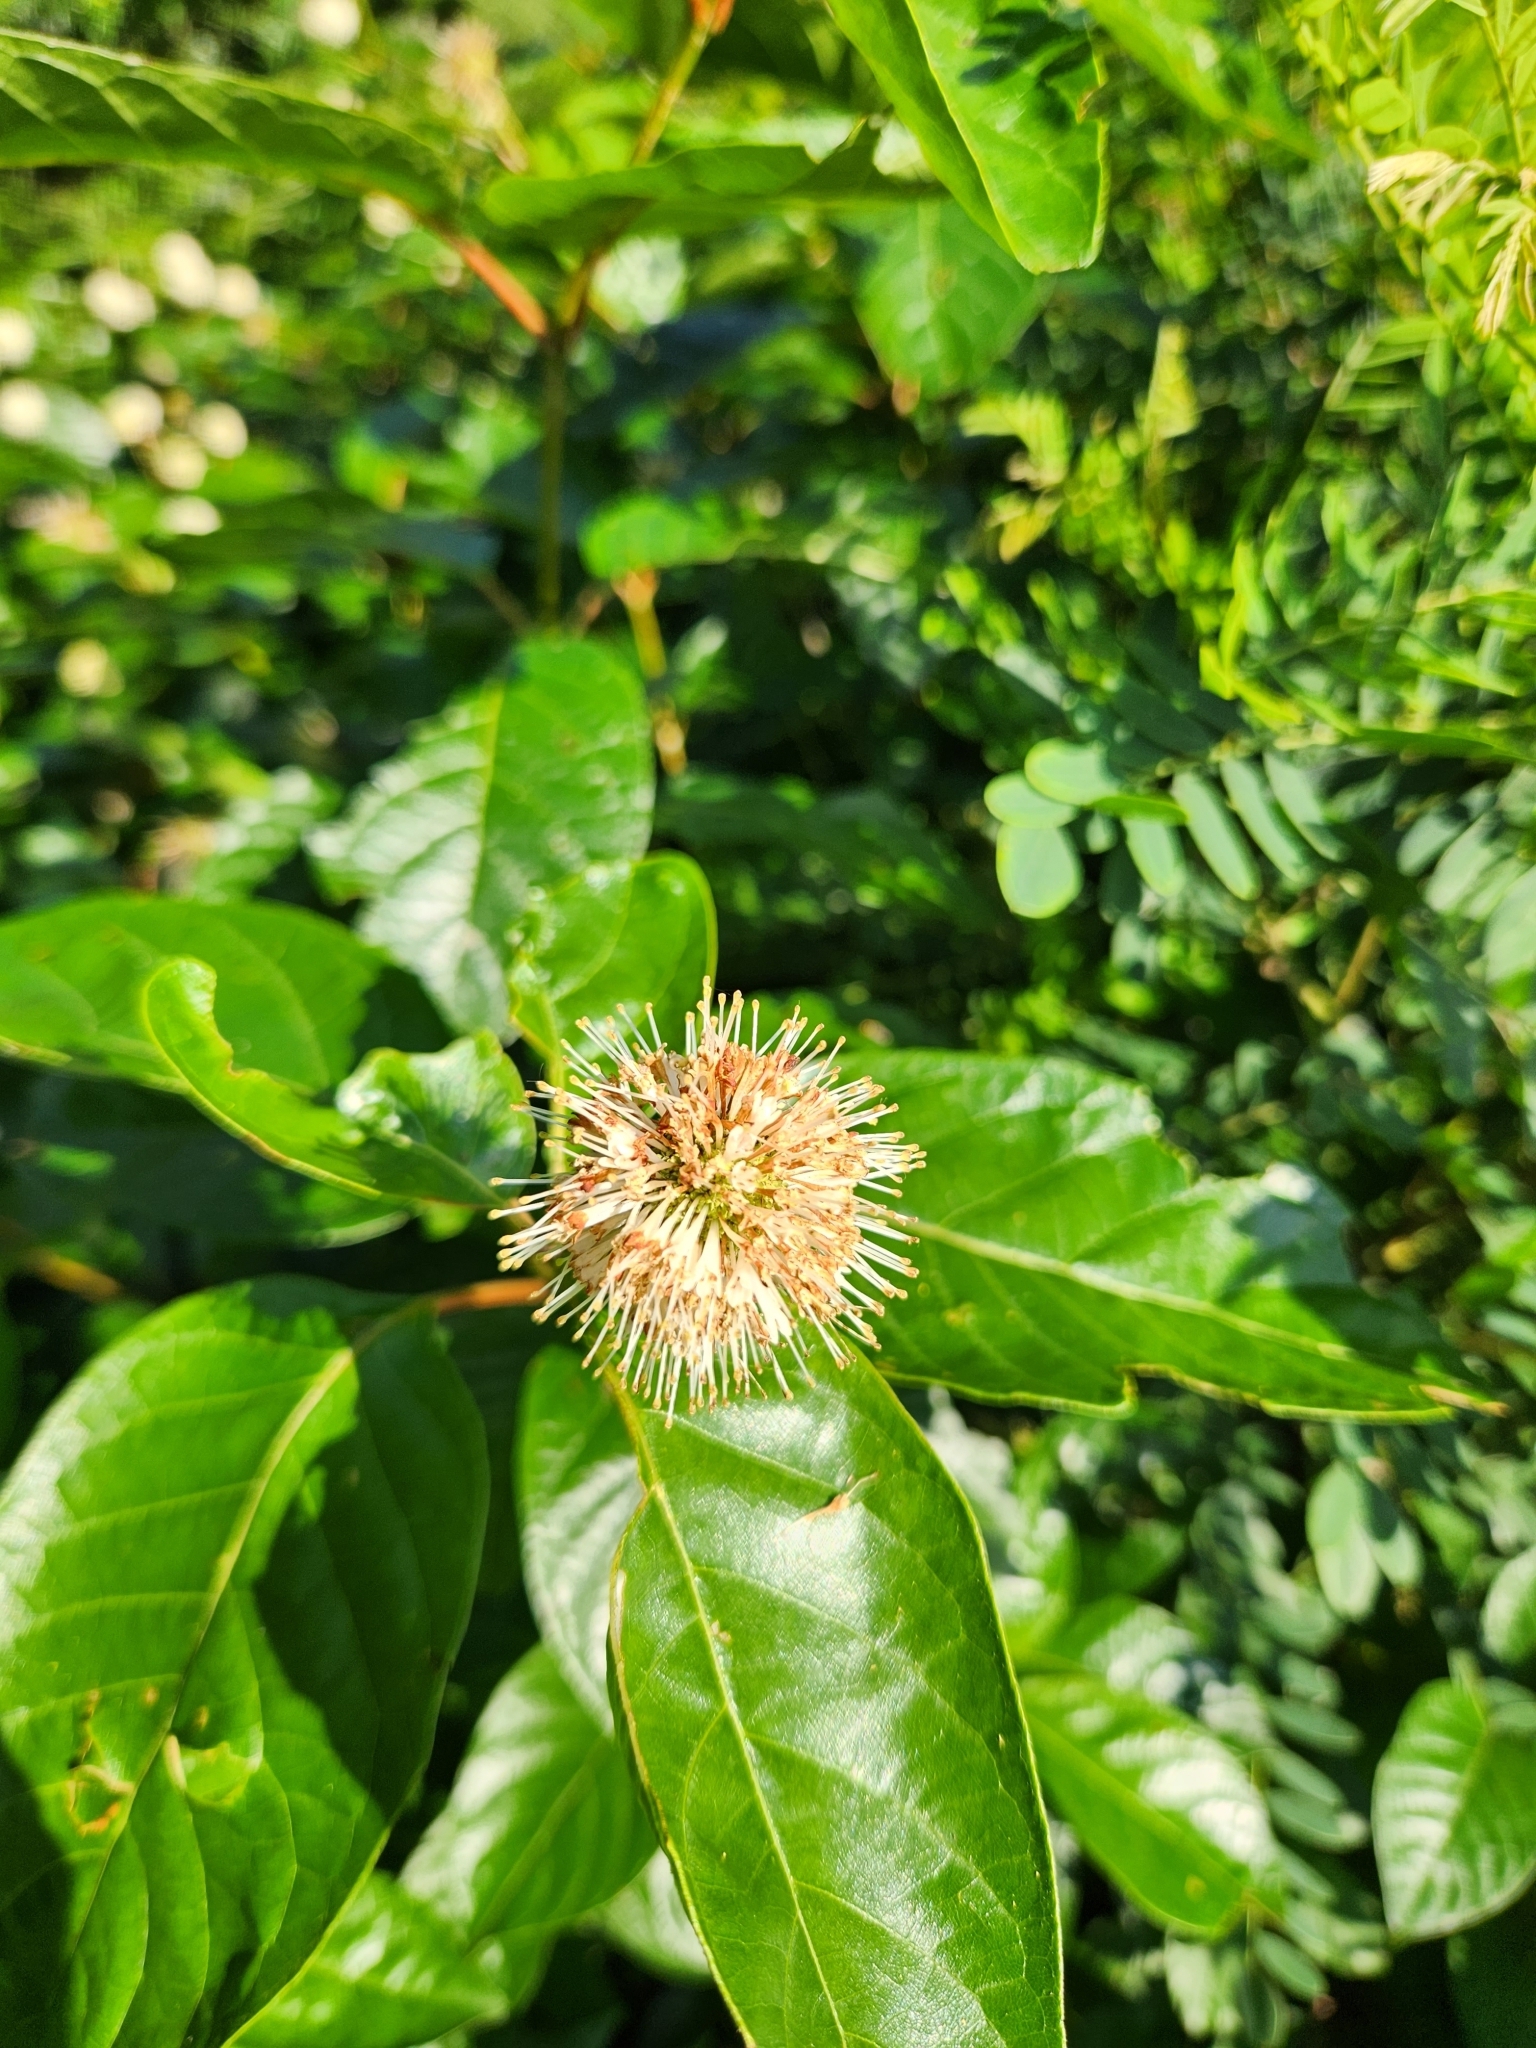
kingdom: Plantae
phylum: Tracheophyta
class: Magnoliopsida
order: Gentianales
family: Rubiaceae
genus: Cephalanthus
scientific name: Cephalanthus occidentalis
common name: Button-willow
